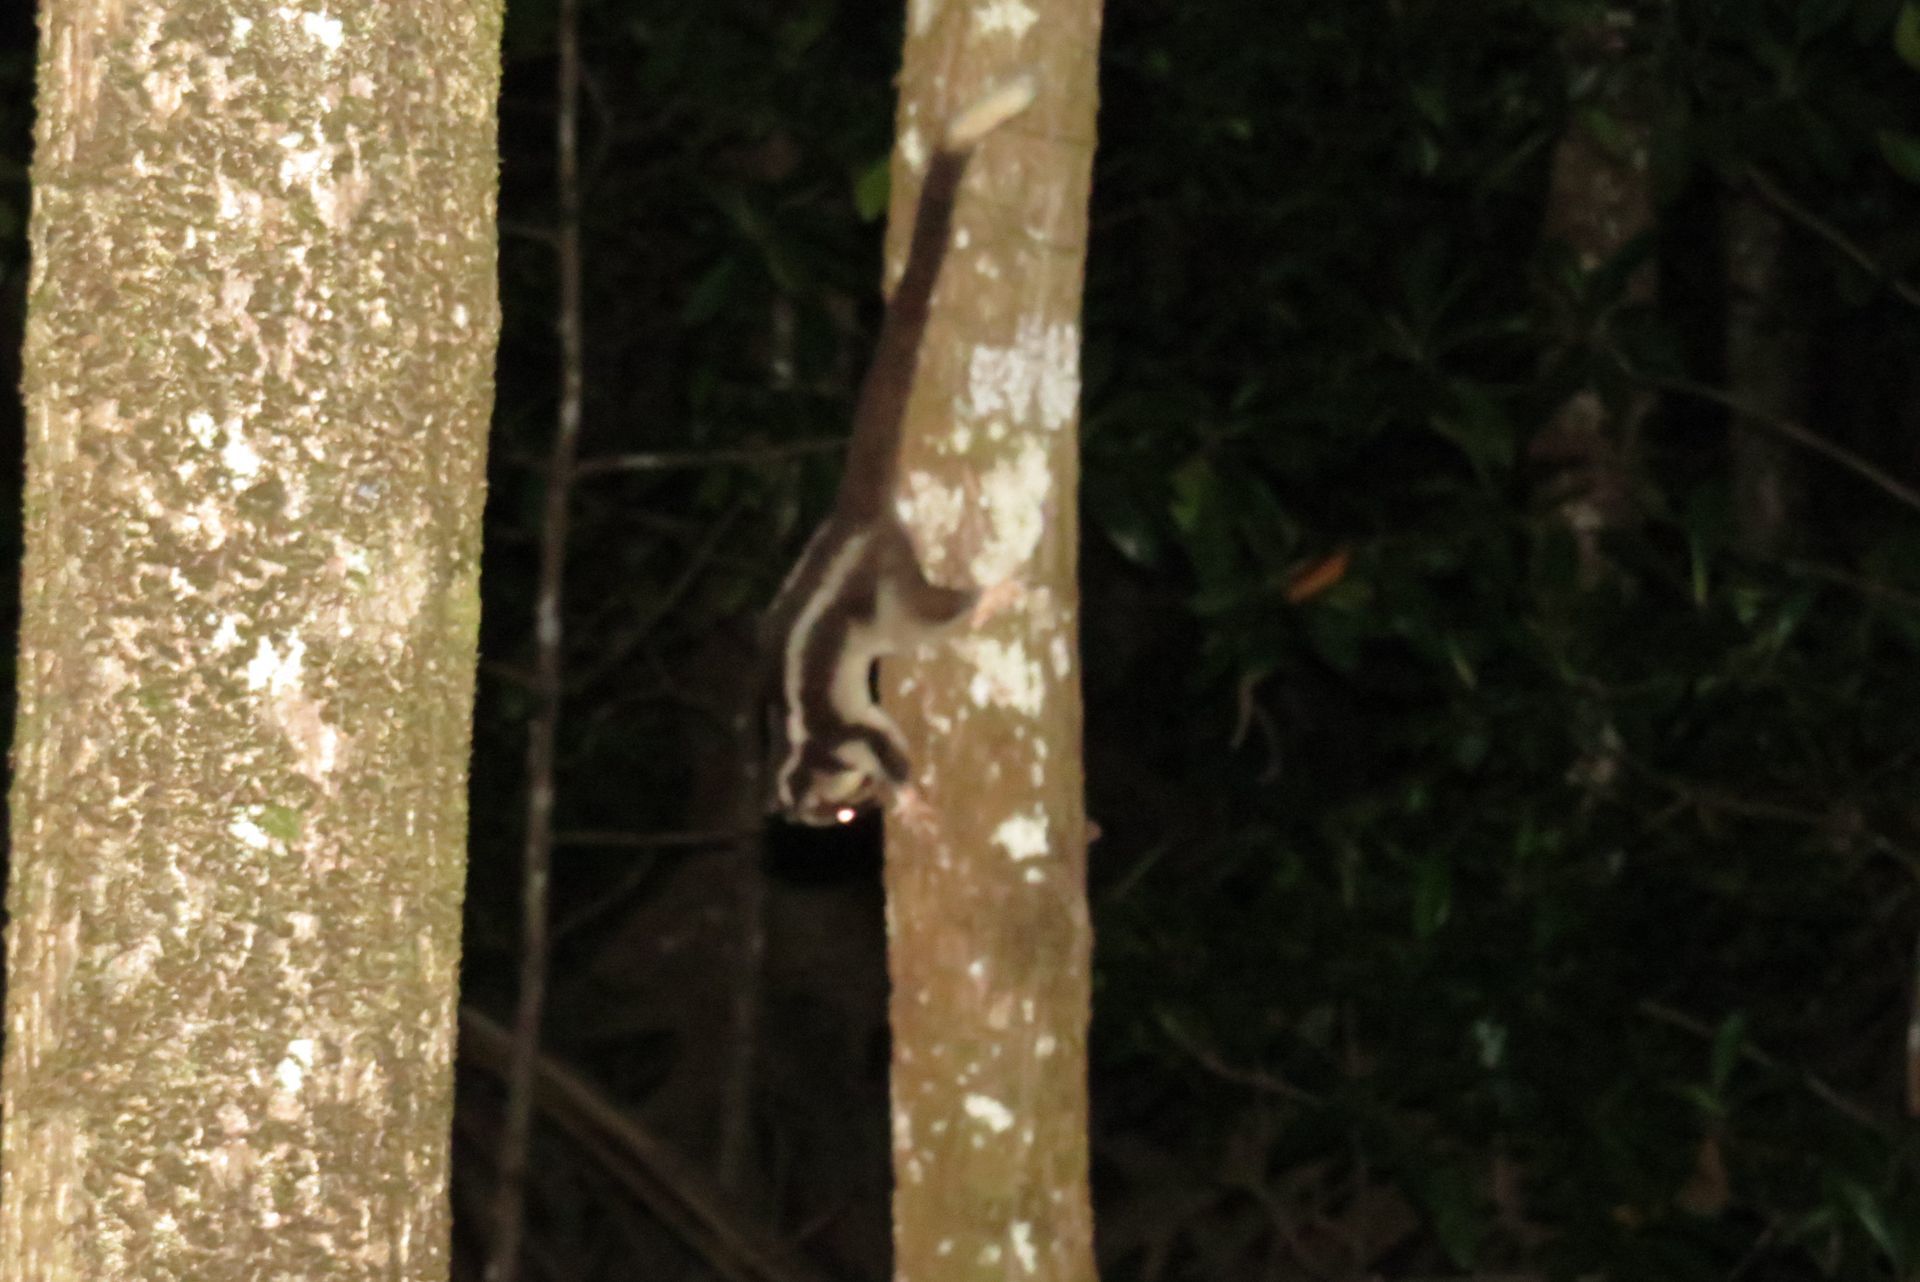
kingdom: Animalia
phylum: Chordata
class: Mammalia
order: Diprotodontia
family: Petauridae
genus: Dactylopsila
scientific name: Dactylopsila trivirgata
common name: Striped possum
